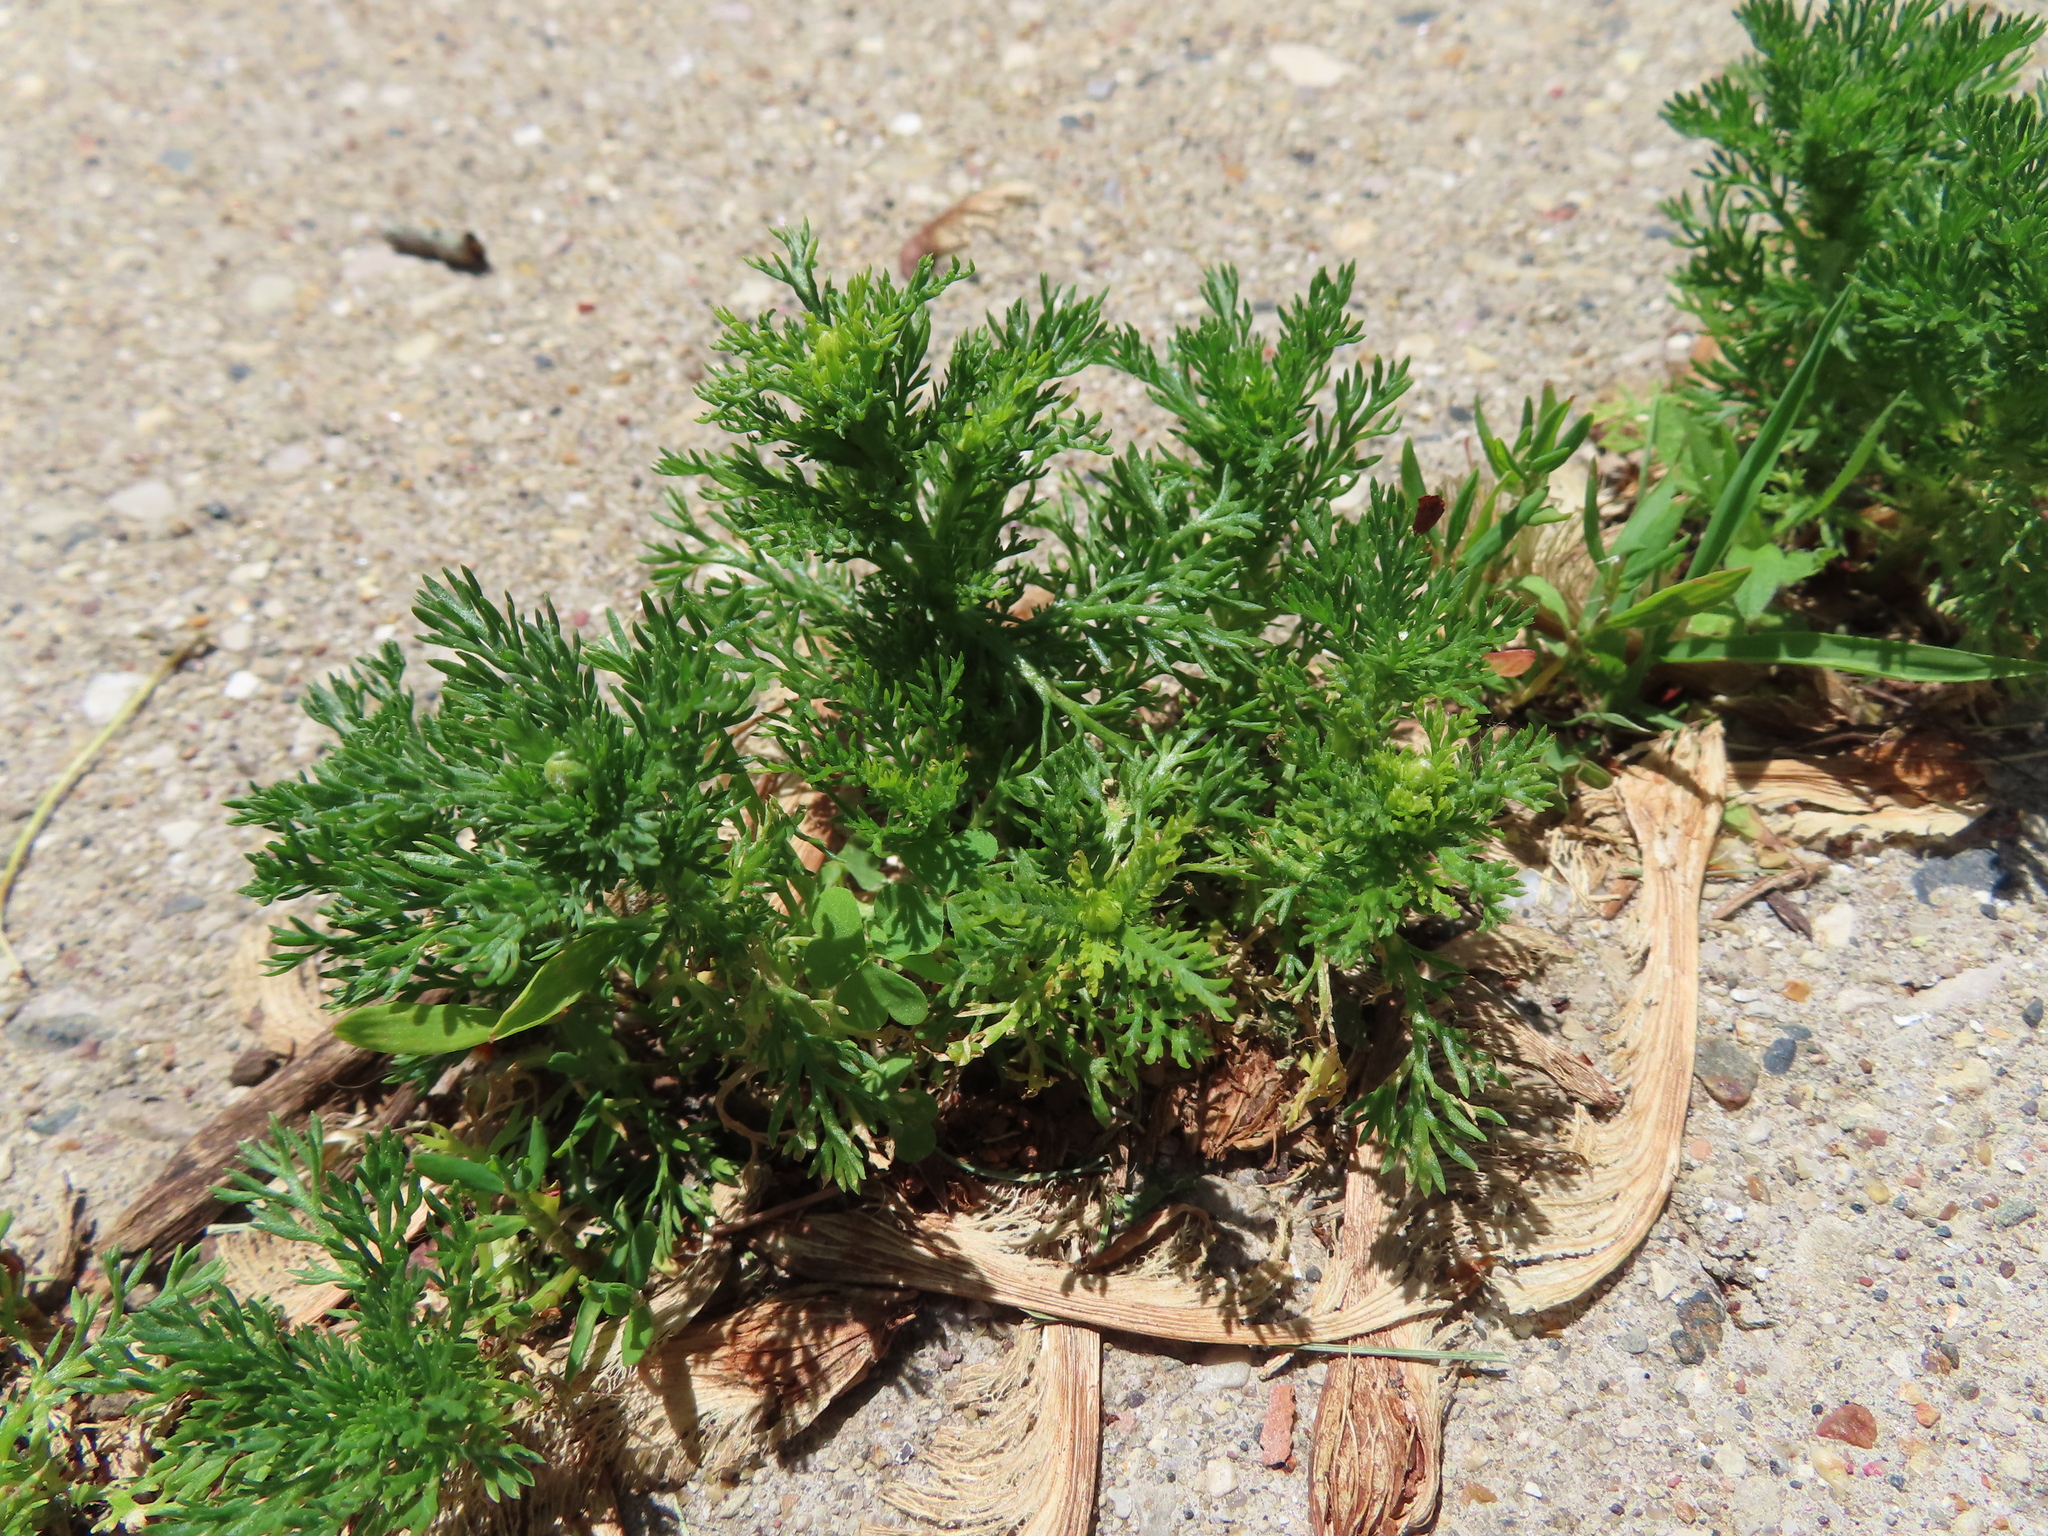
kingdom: Plantae
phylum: Tracheophyta
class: Magnoliopsida
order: Asterales
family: Asteraceae
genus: Matricaria
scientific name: Matricaria discoidea
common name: Disc mayweed
